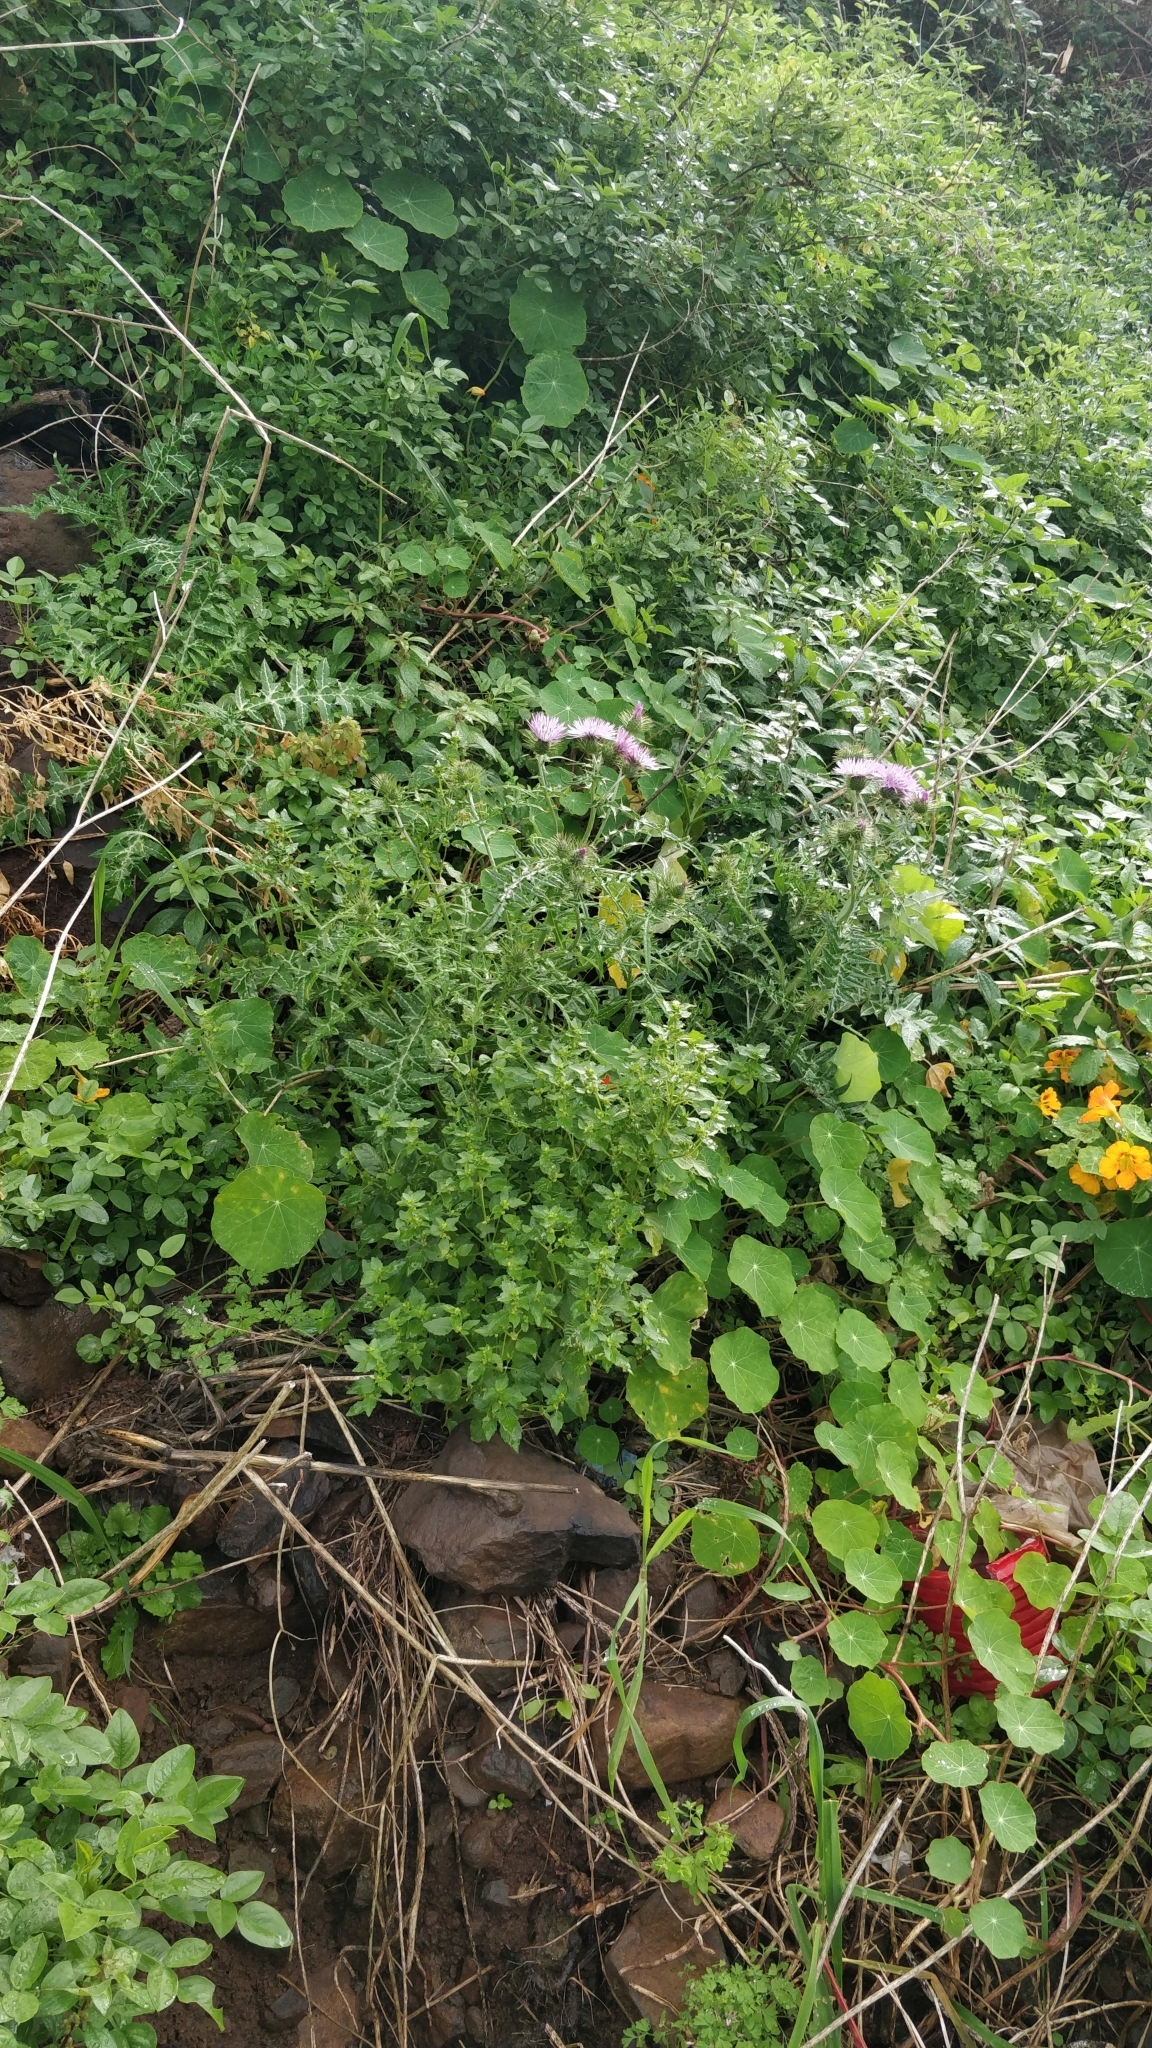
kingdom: Plantae
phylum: Tracheophyta
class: Magnoliopsida
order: Asterales
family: Asteraceae
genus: Galactites
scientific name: Galactites tomentosa
